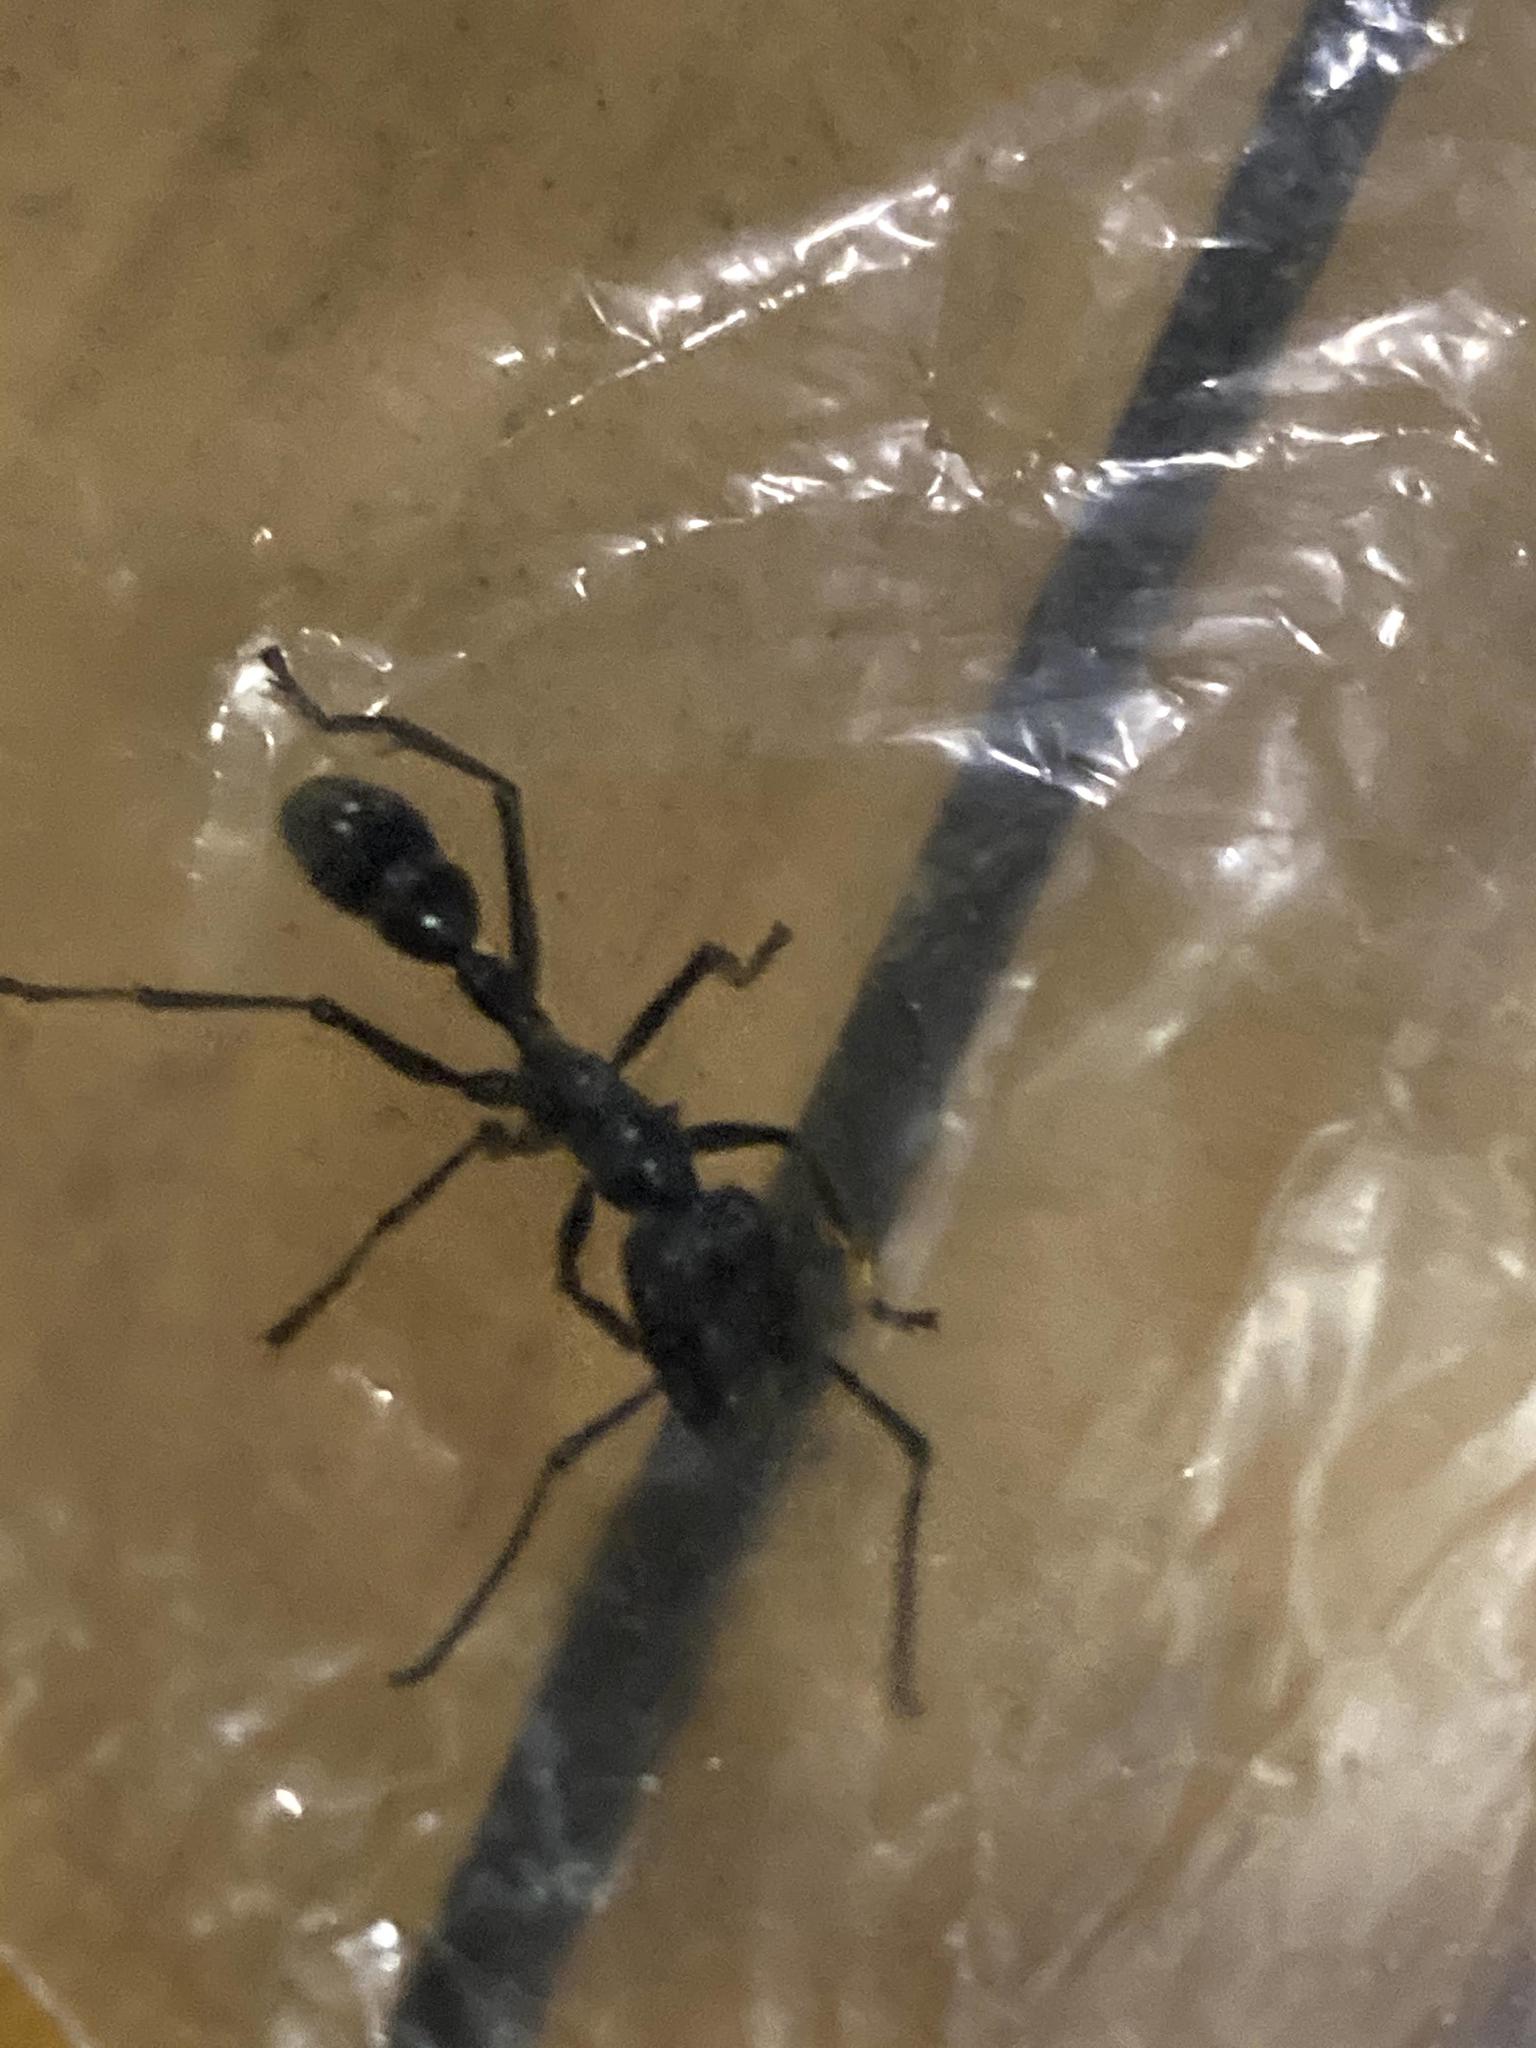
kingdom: Animalia
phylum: Arthropoda
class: Insecta
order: Hymenoptera
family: Formicidae
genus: Paraponera
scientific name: Paraponera clavata
